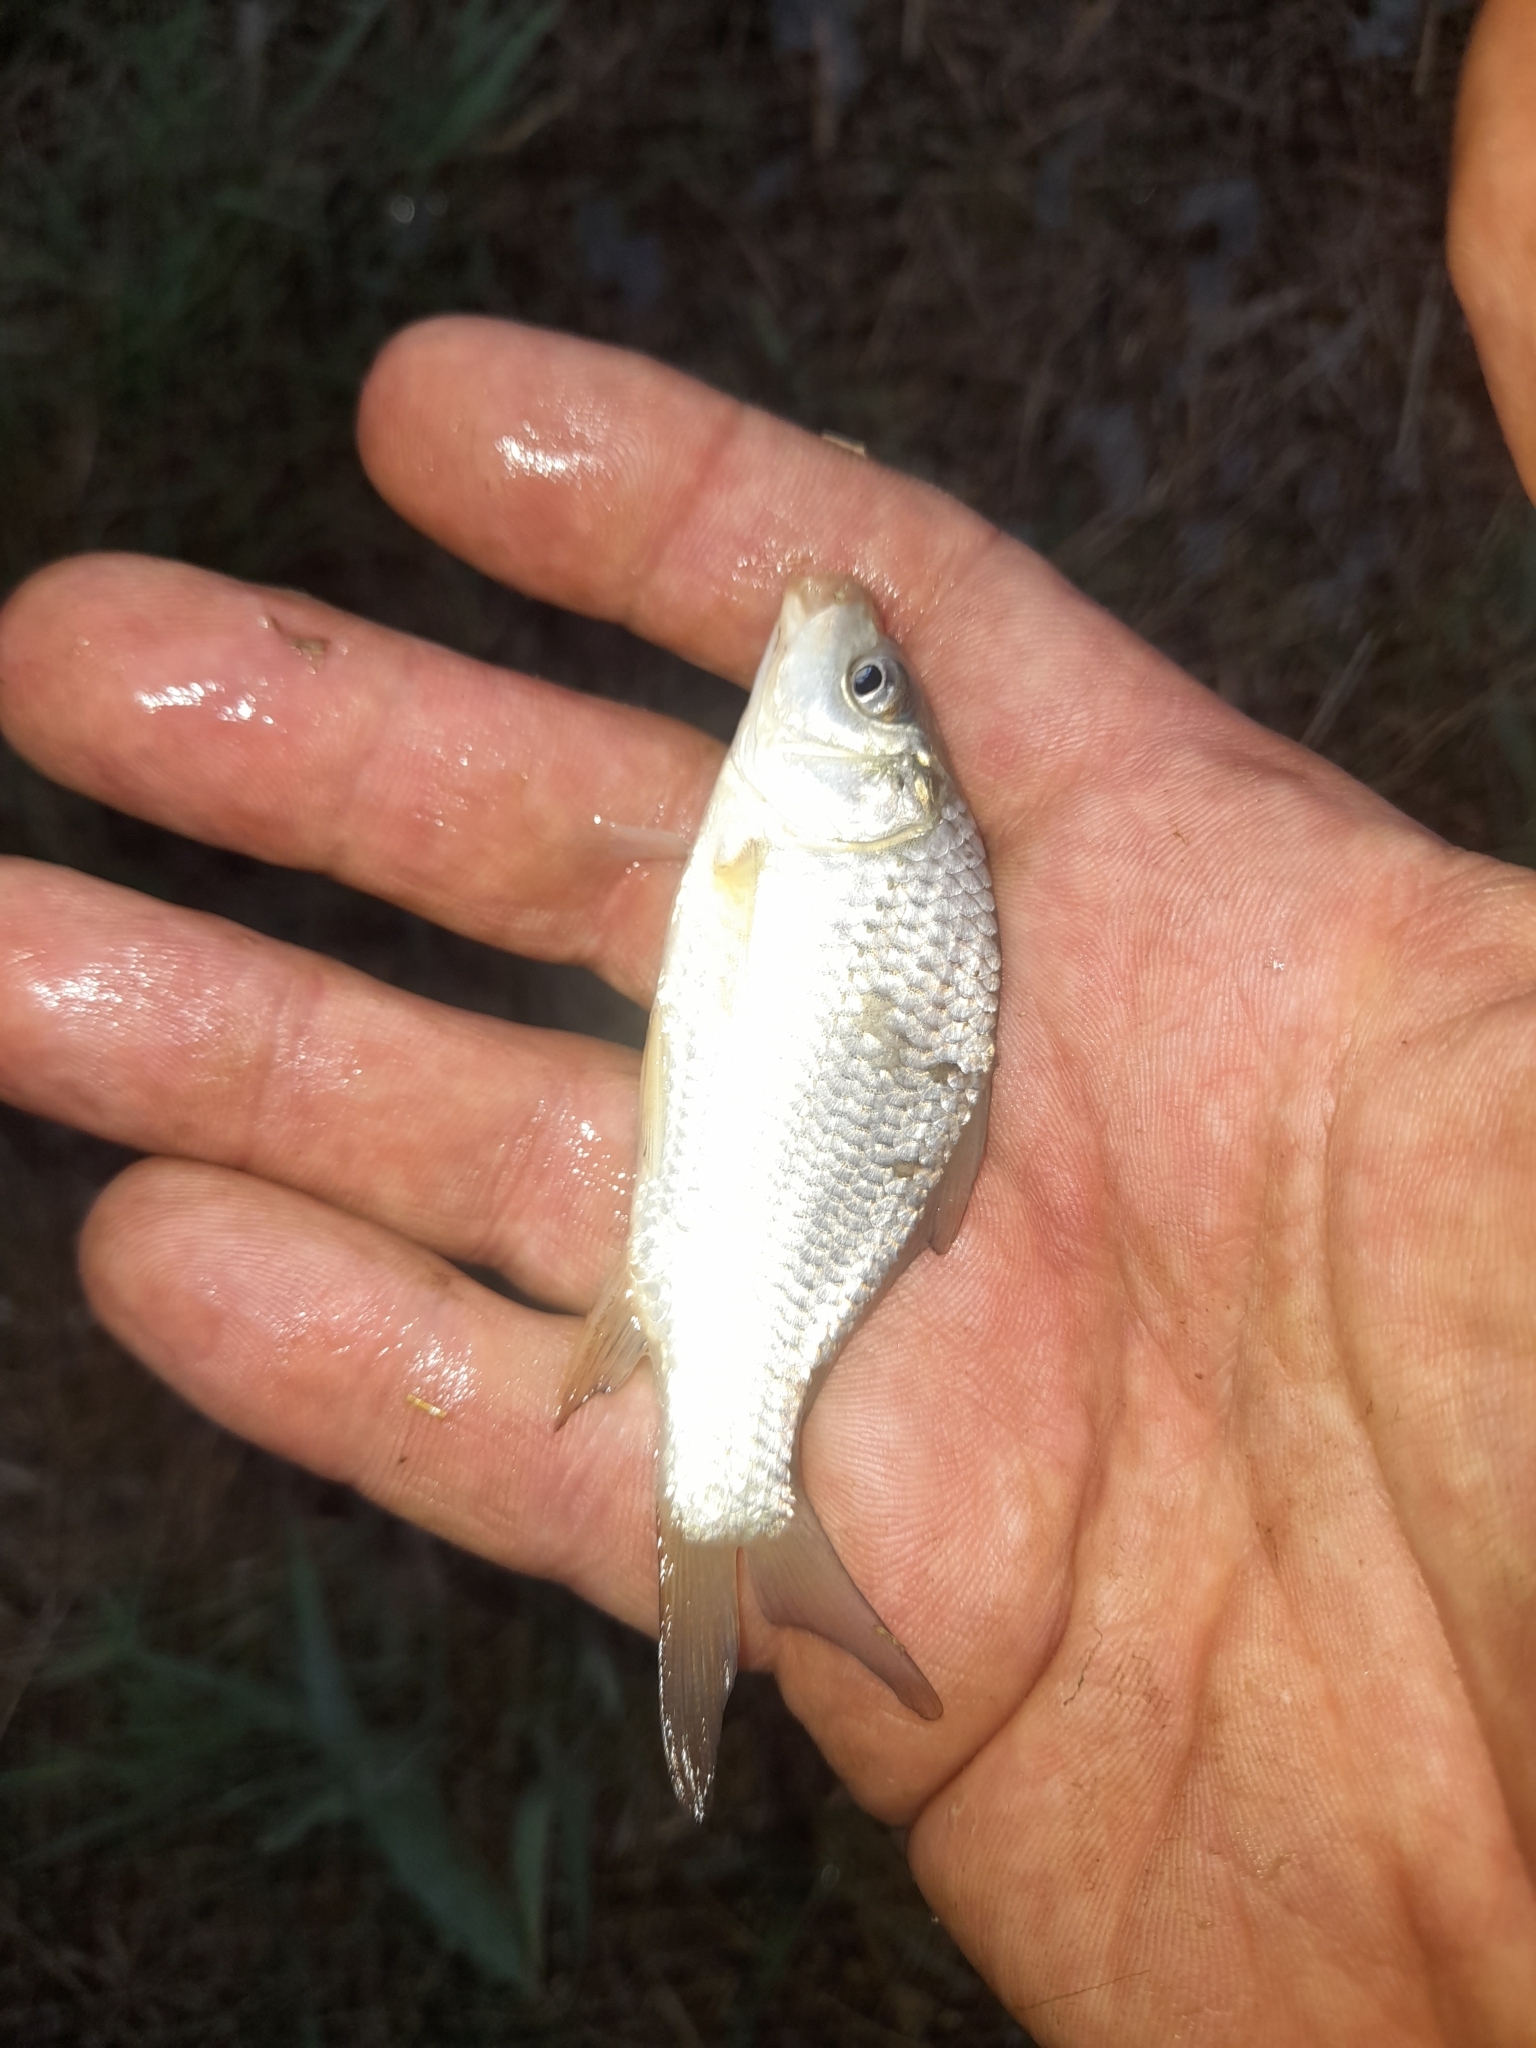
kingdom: Animalia
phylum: Chordata
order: Cypriniformes
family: Cyprinidae
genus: Cyprinus
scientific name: Cyprinus carpio
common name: Common carp
